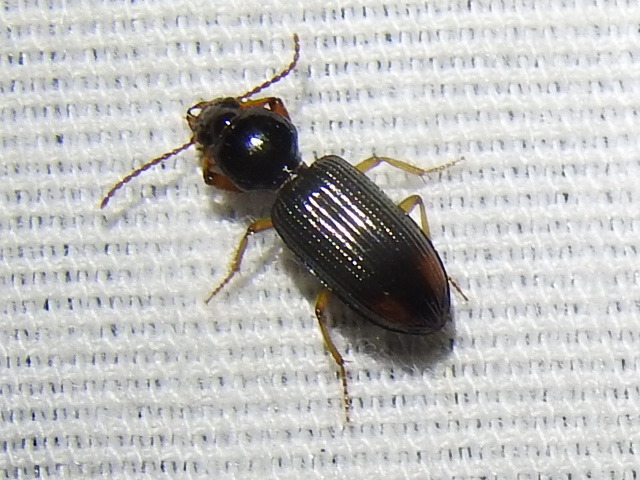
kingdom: Animalia
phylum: Arthropoda
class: Insecta
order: Coleoptera
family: Carabidae
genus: Clivina
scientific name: Clivina bipustulata
